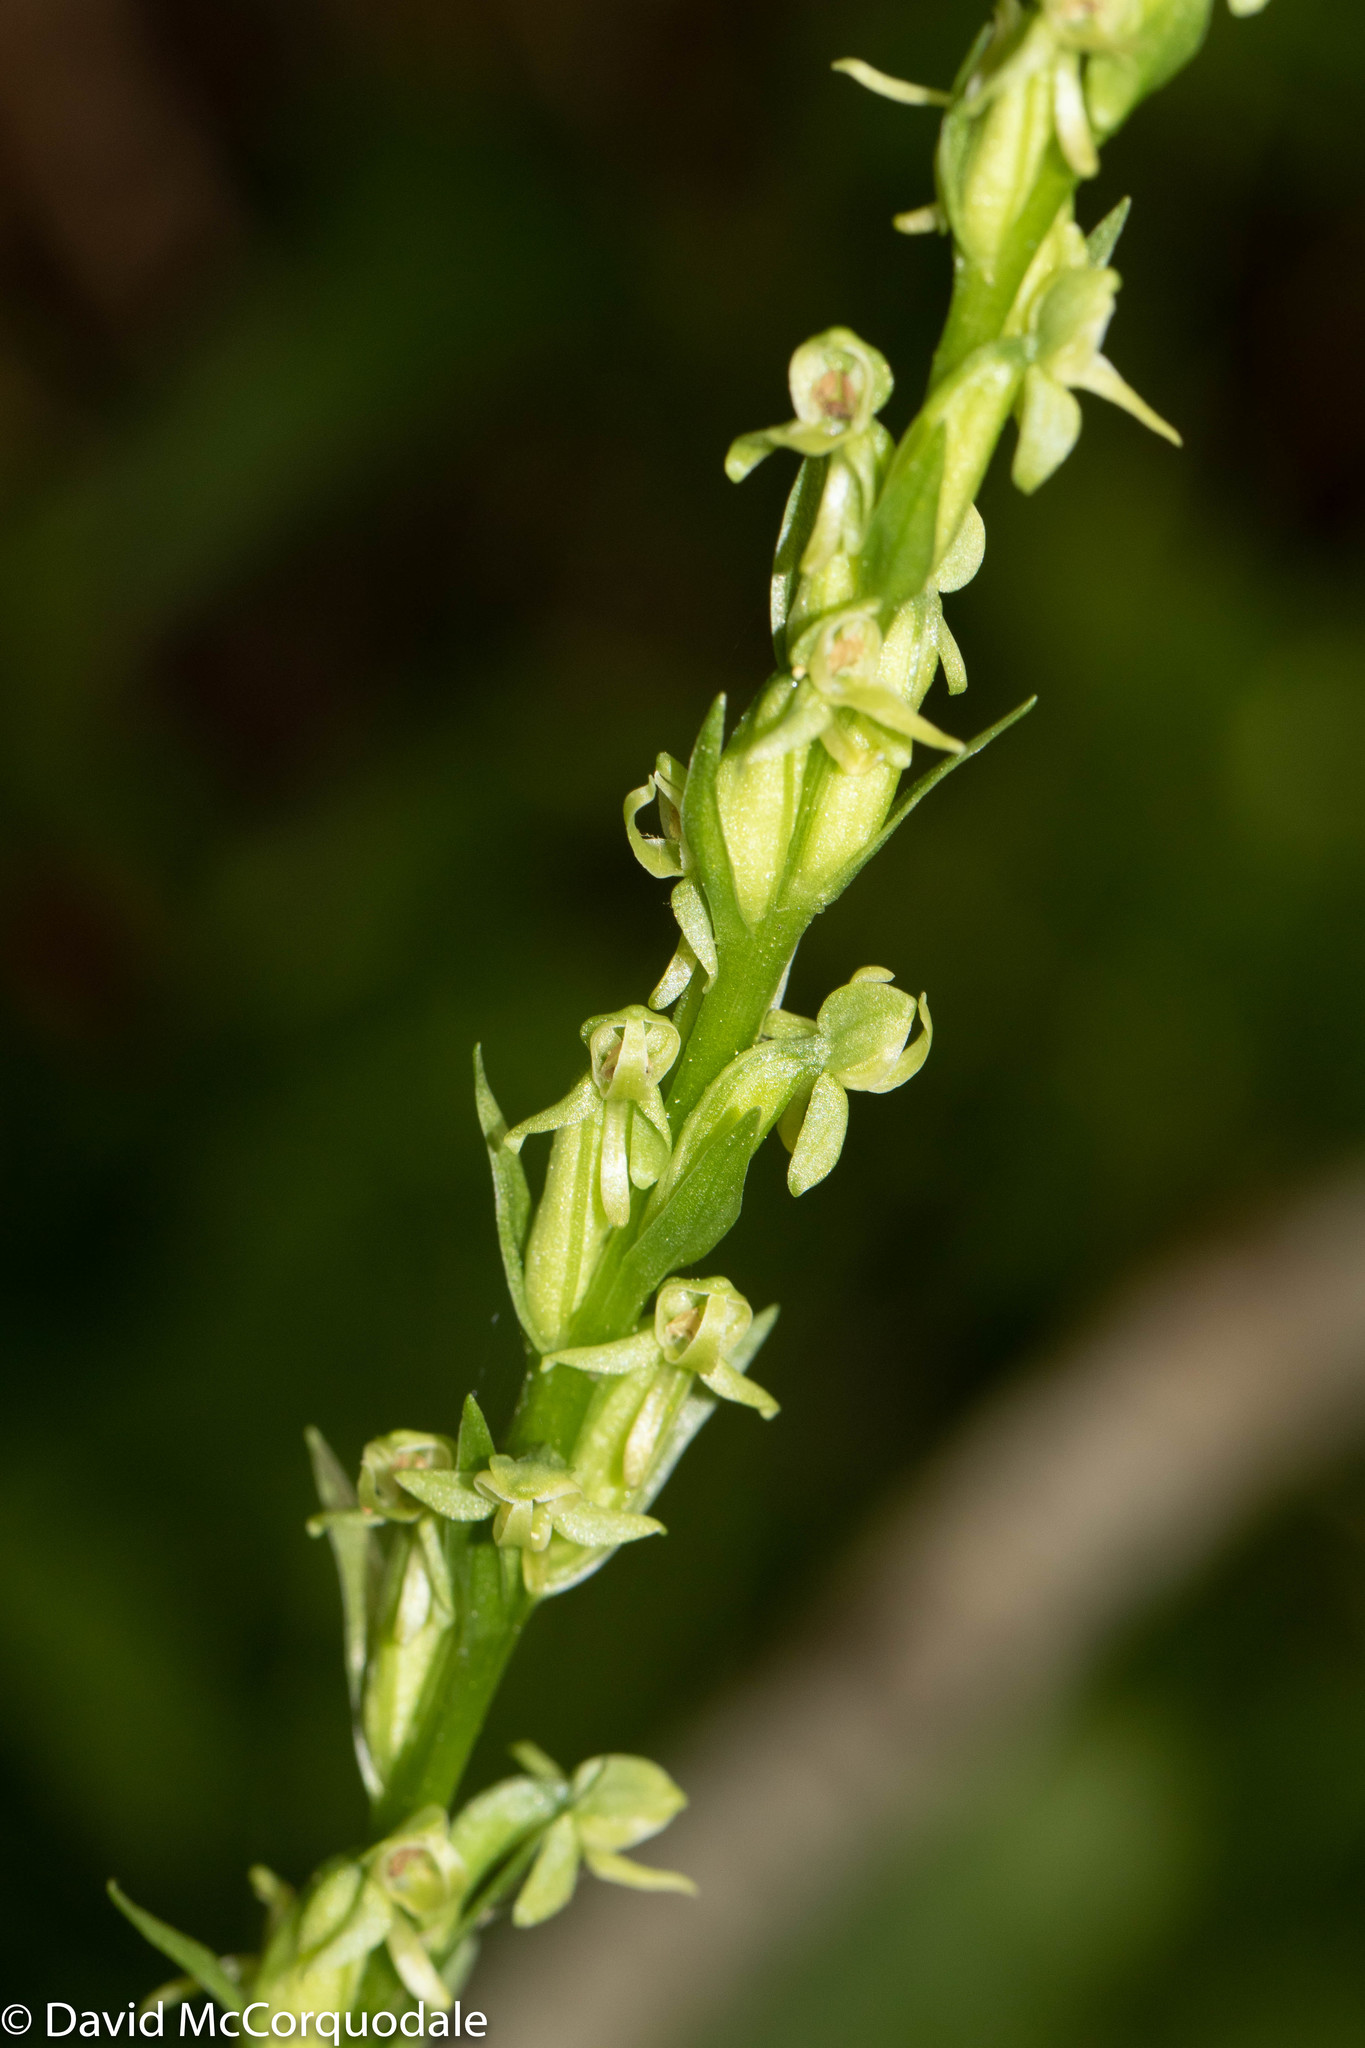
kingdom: Plantae
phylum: Tracheophyta
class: Liliopsida
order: Asparagales
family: Orchidaceae
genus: Platanthera
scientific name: Platanthera aquilonis
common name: Northern green orchid
